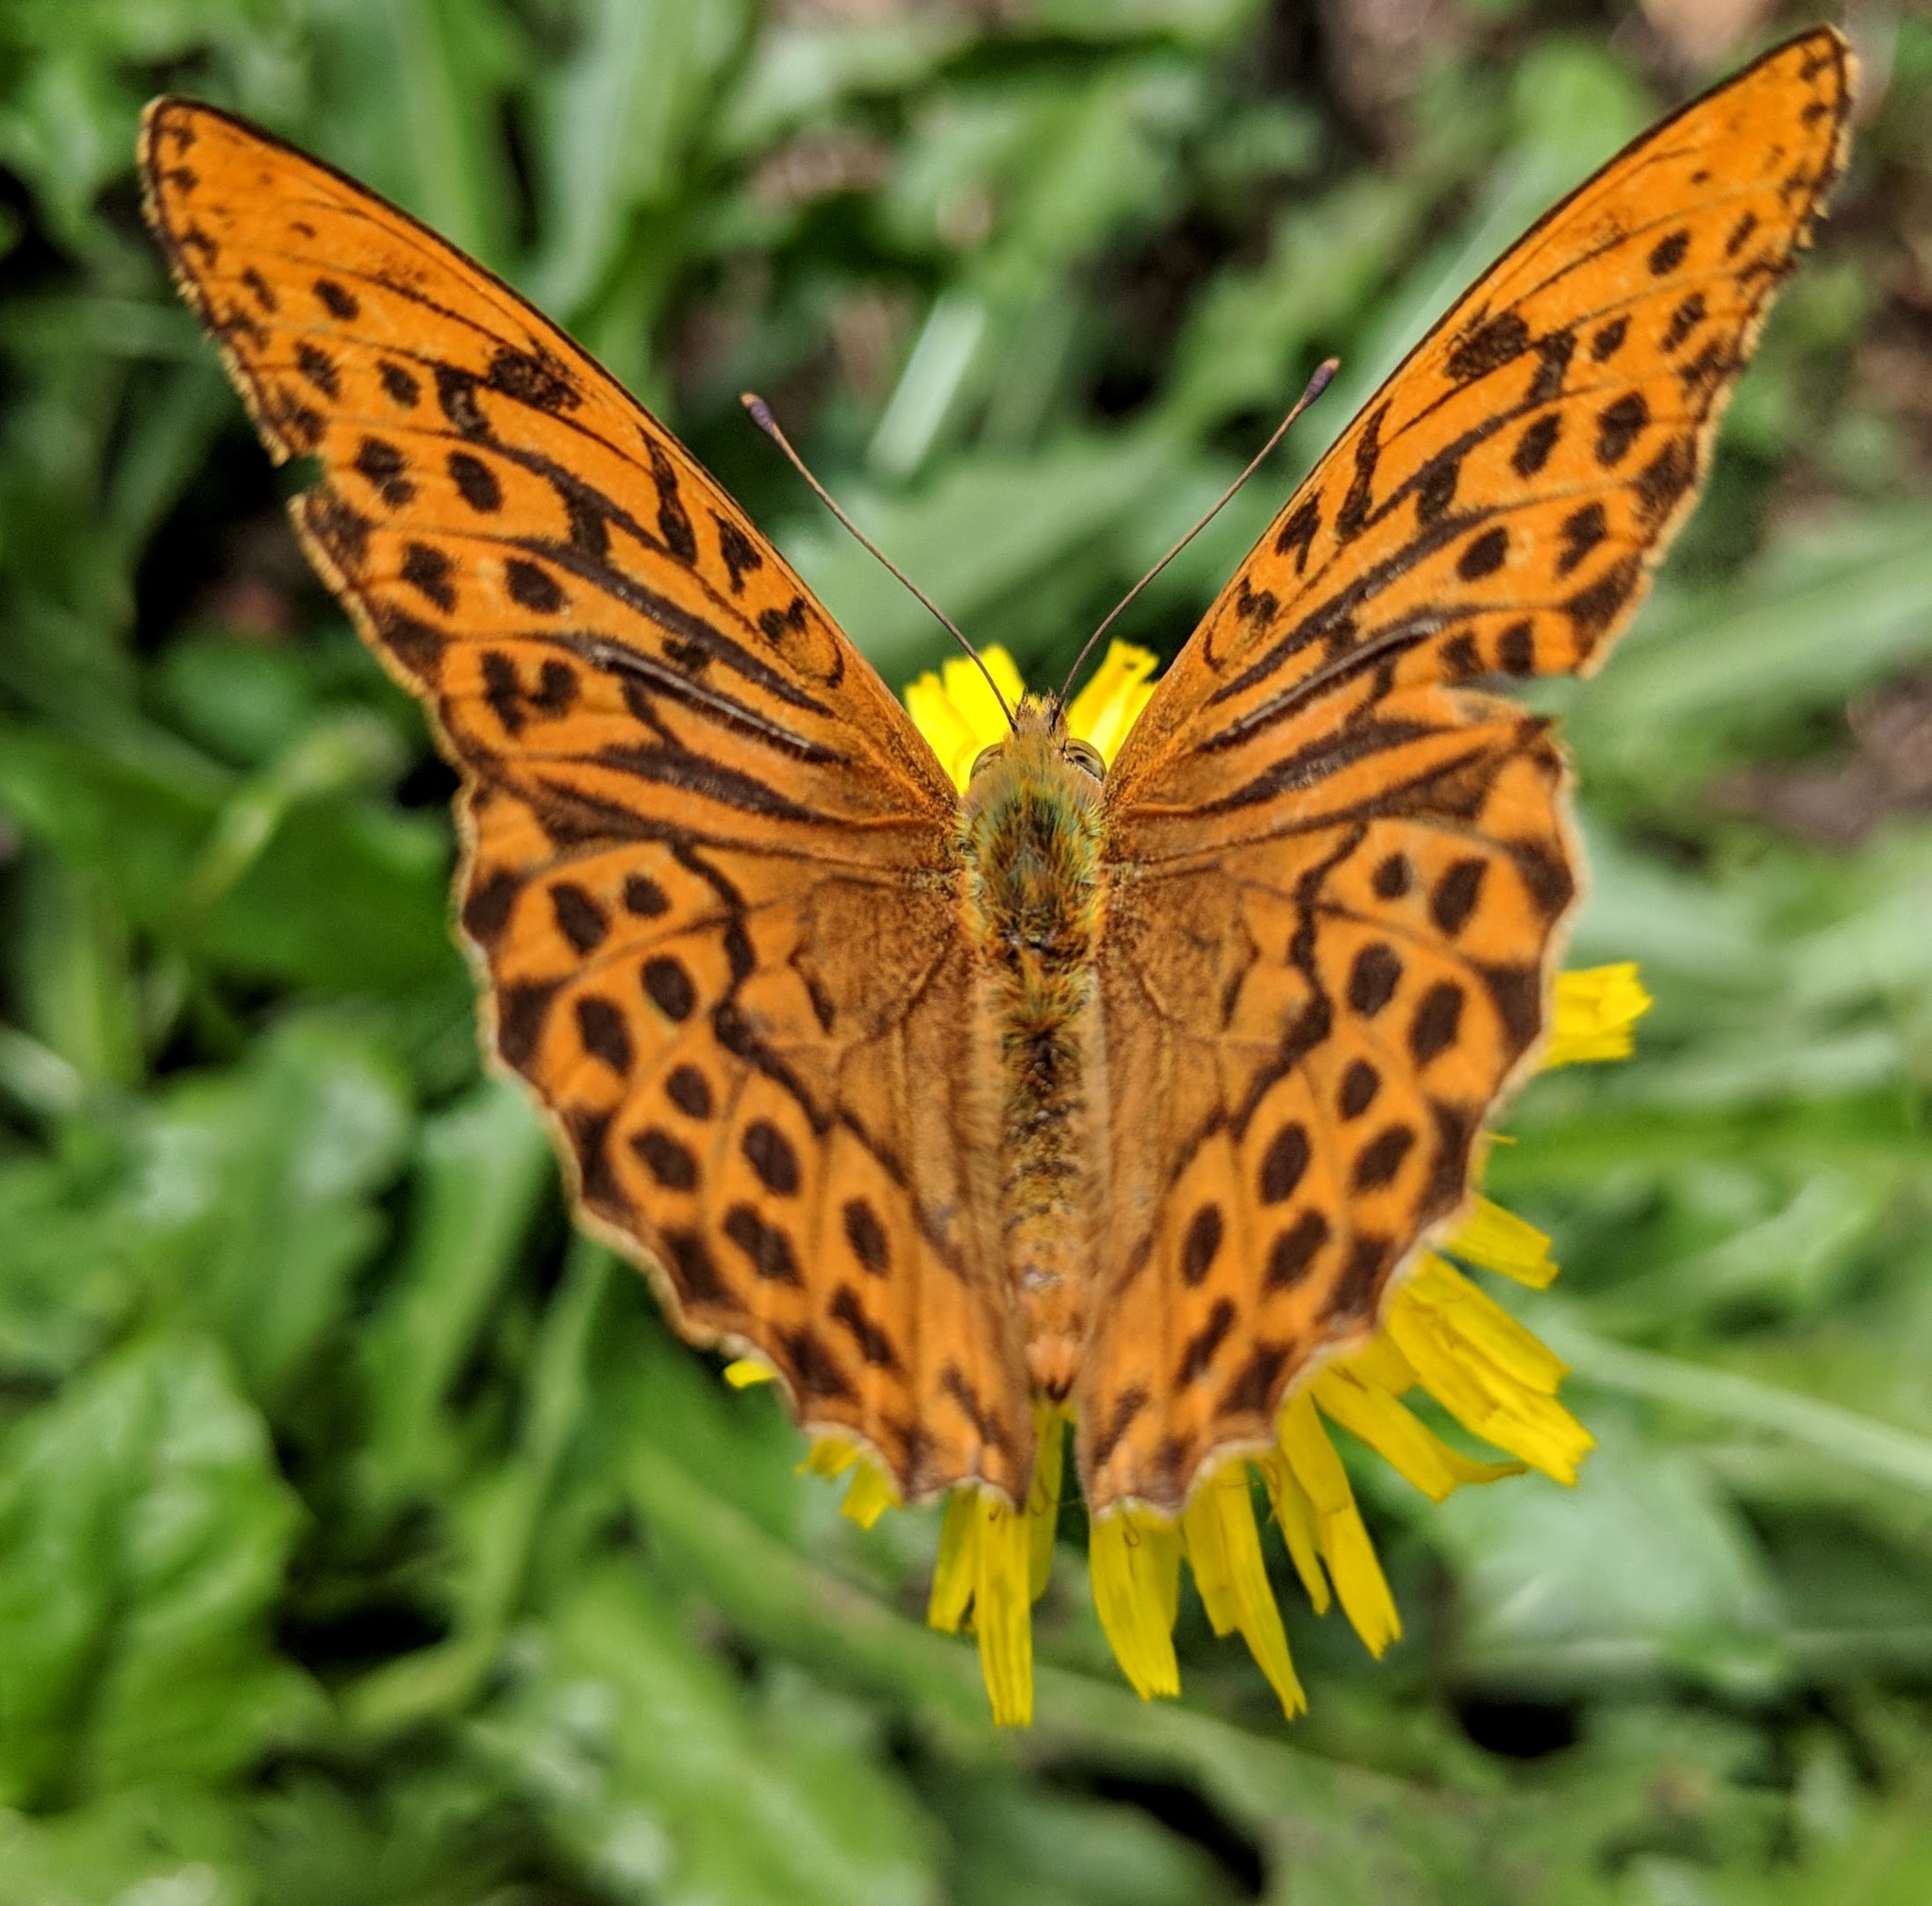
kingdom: Animalia
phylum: Arthropoda
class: Insecta
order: Lepidoptera
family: Nymphalidae
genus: Argynnis
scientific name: Argynnis paphia
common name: Silver-washed fritillary
